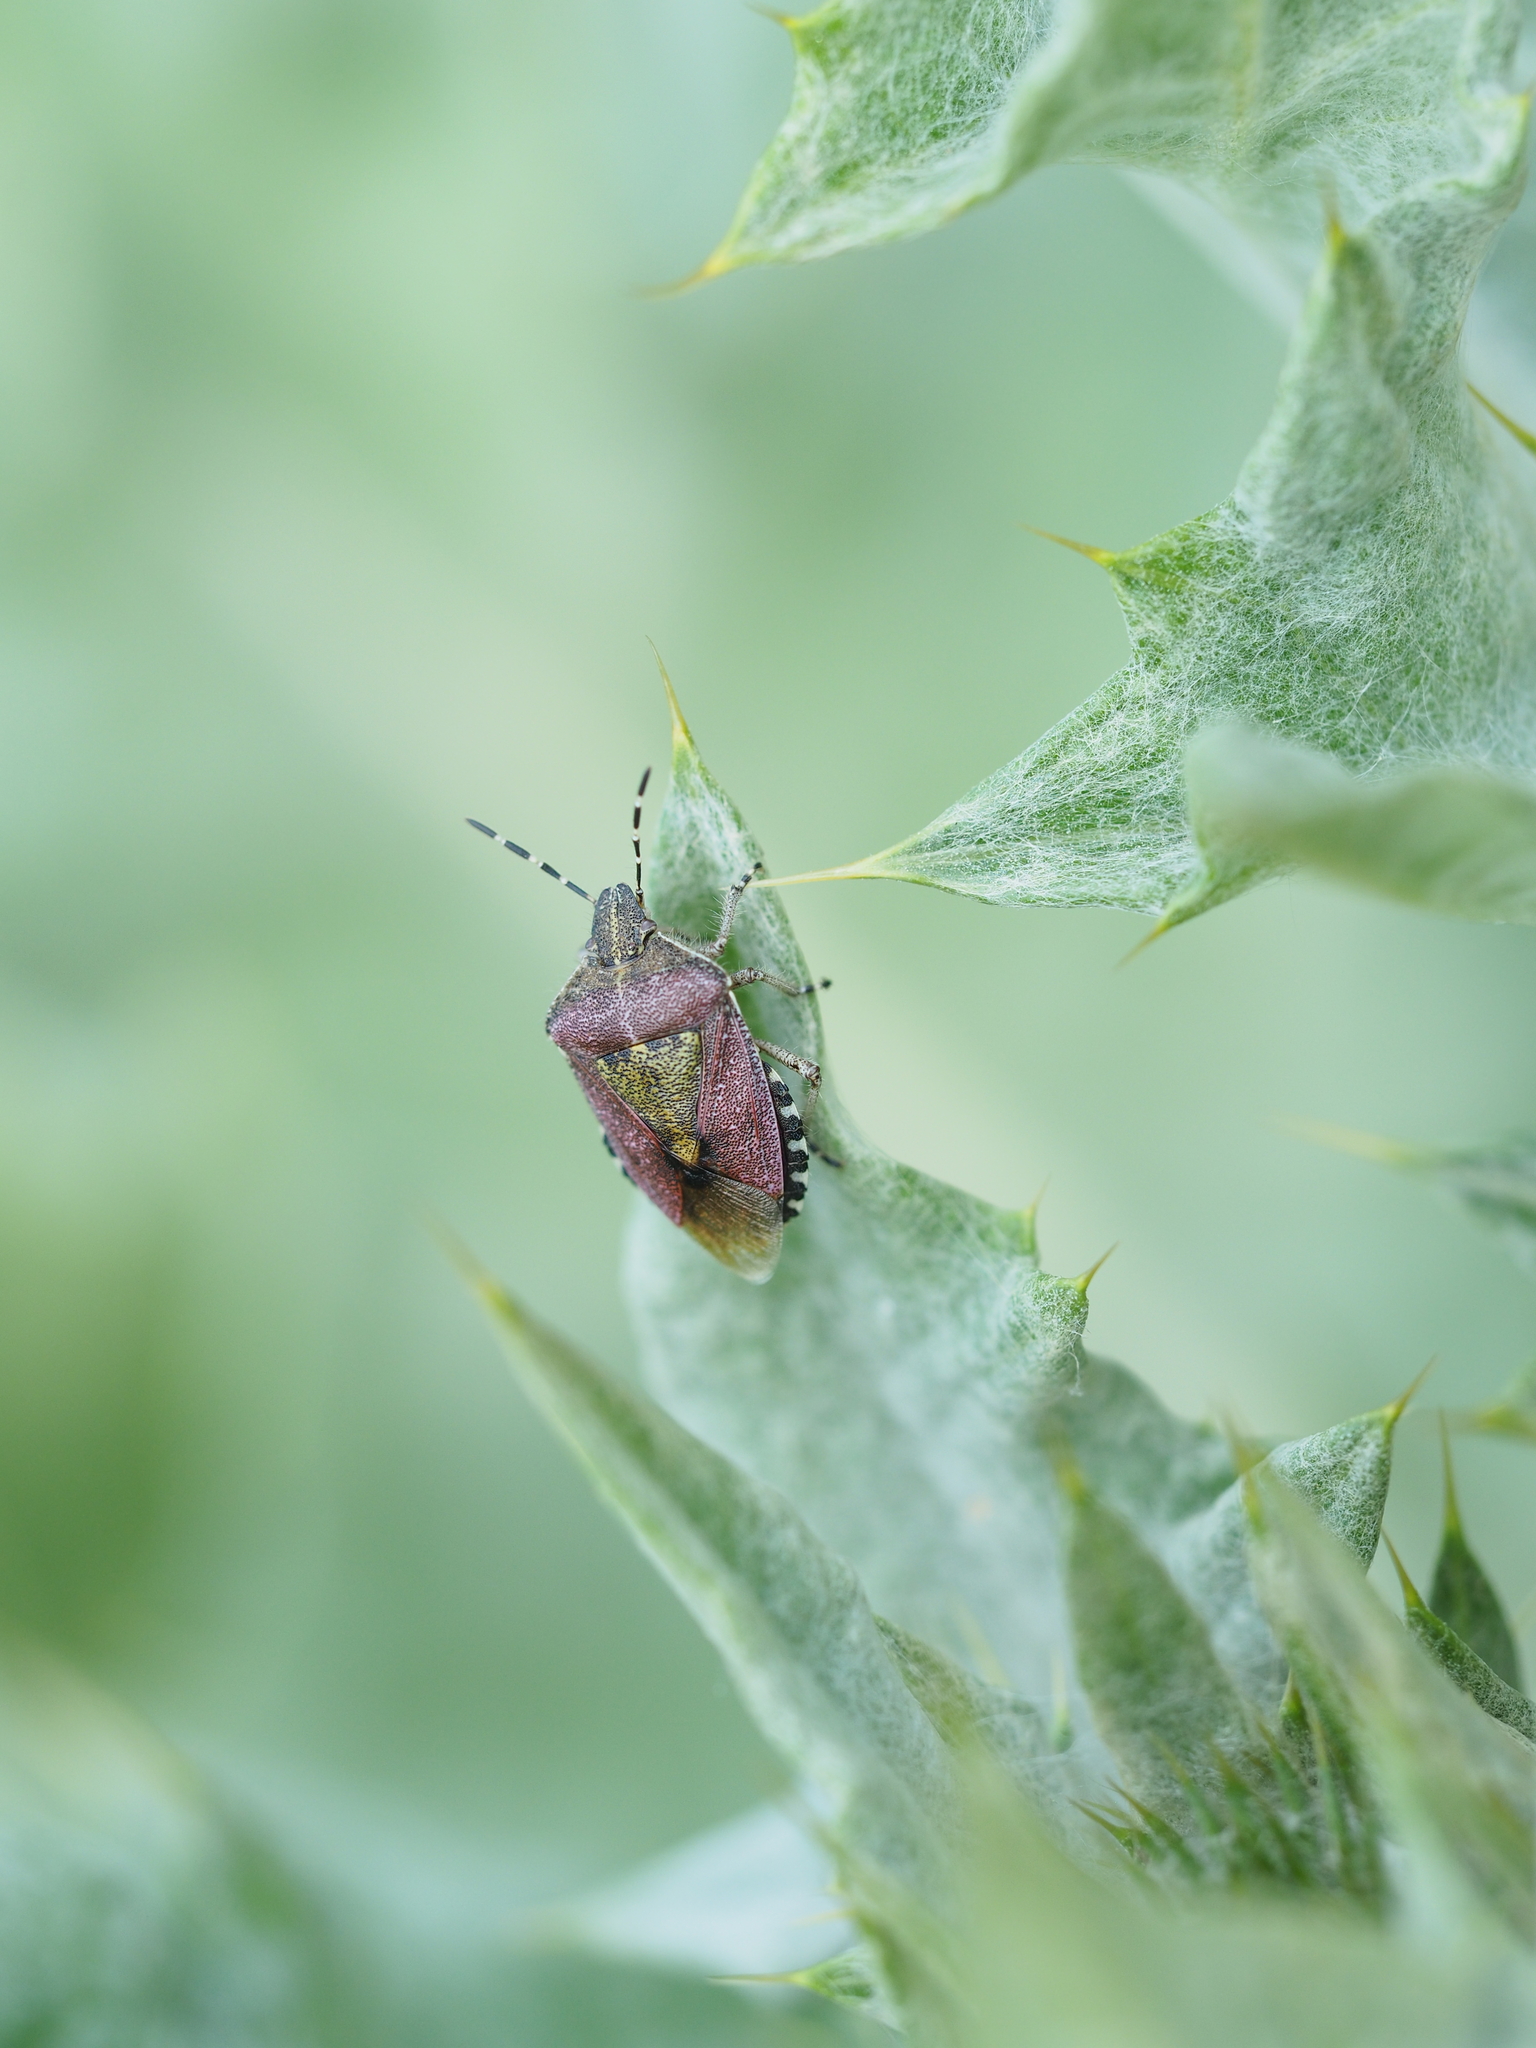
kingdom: Animalia
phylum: Arthropoda
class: Insecta
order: Hemiptera
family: Pentatomidae
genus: Dolycoris
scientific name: Dolycoris baccarum
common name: Sloe bug
